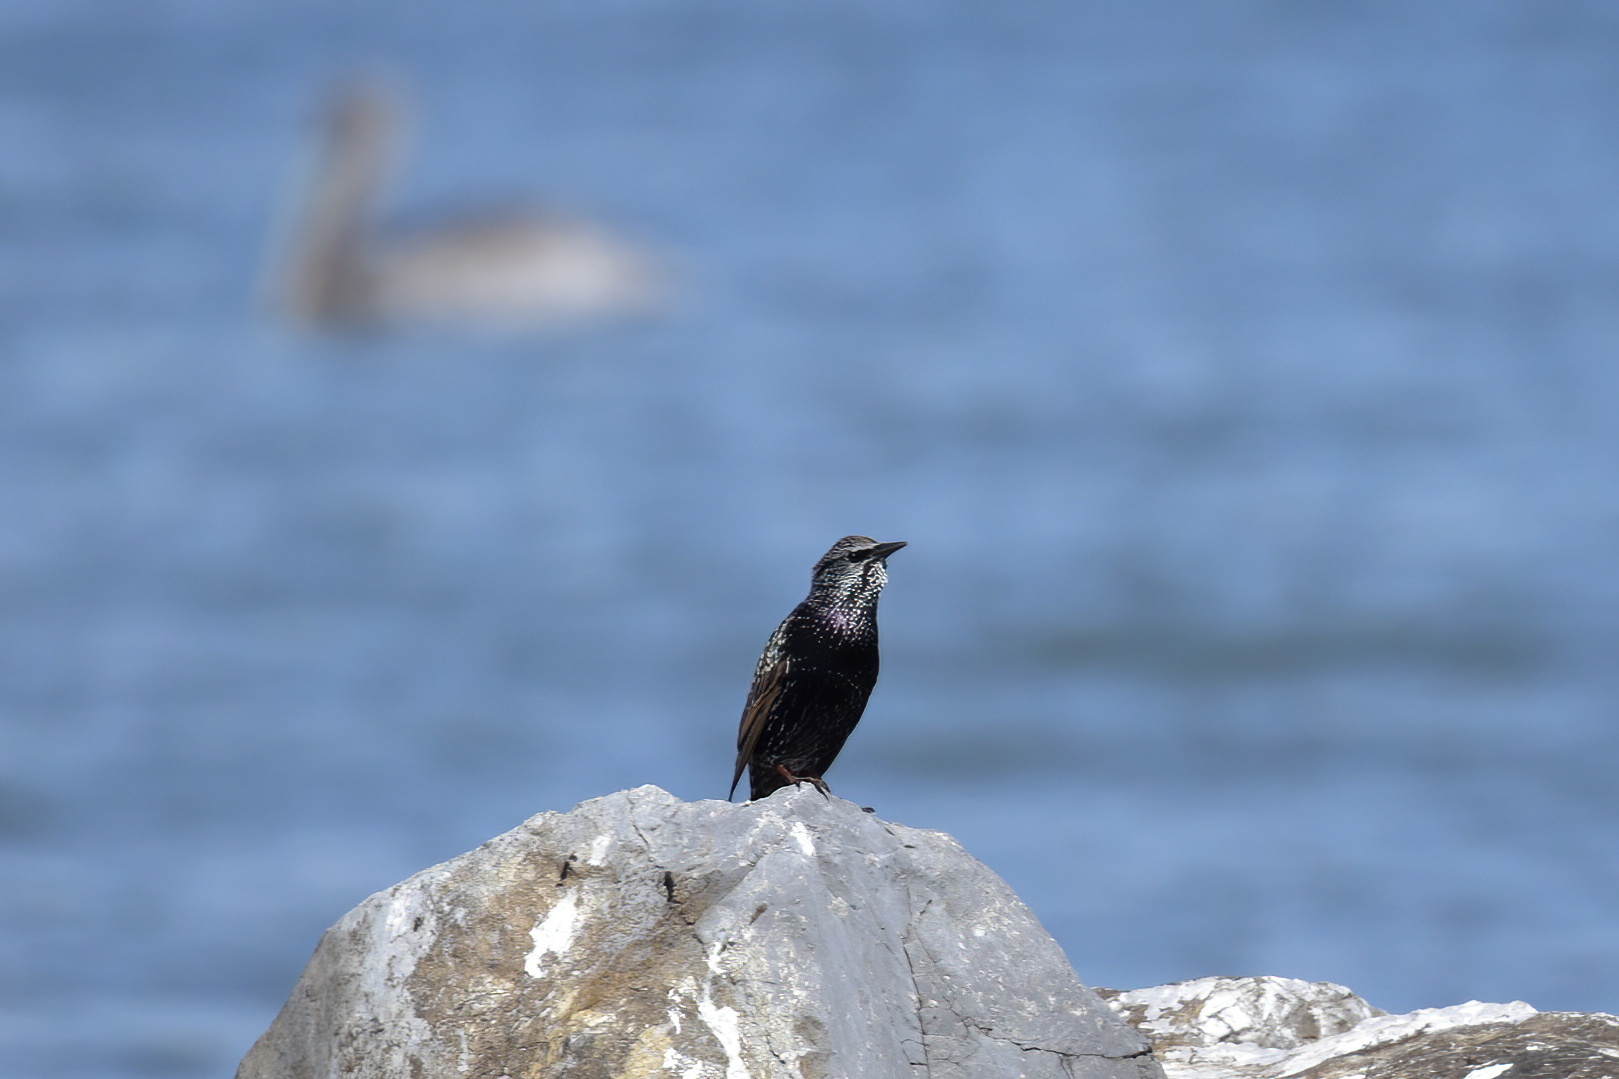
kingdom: Animalia
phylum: Chordata
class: Aves
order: Passeriformes
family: Sturnidae
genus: Sturnus
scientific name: Sturnus vulgaris
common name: Common starling
